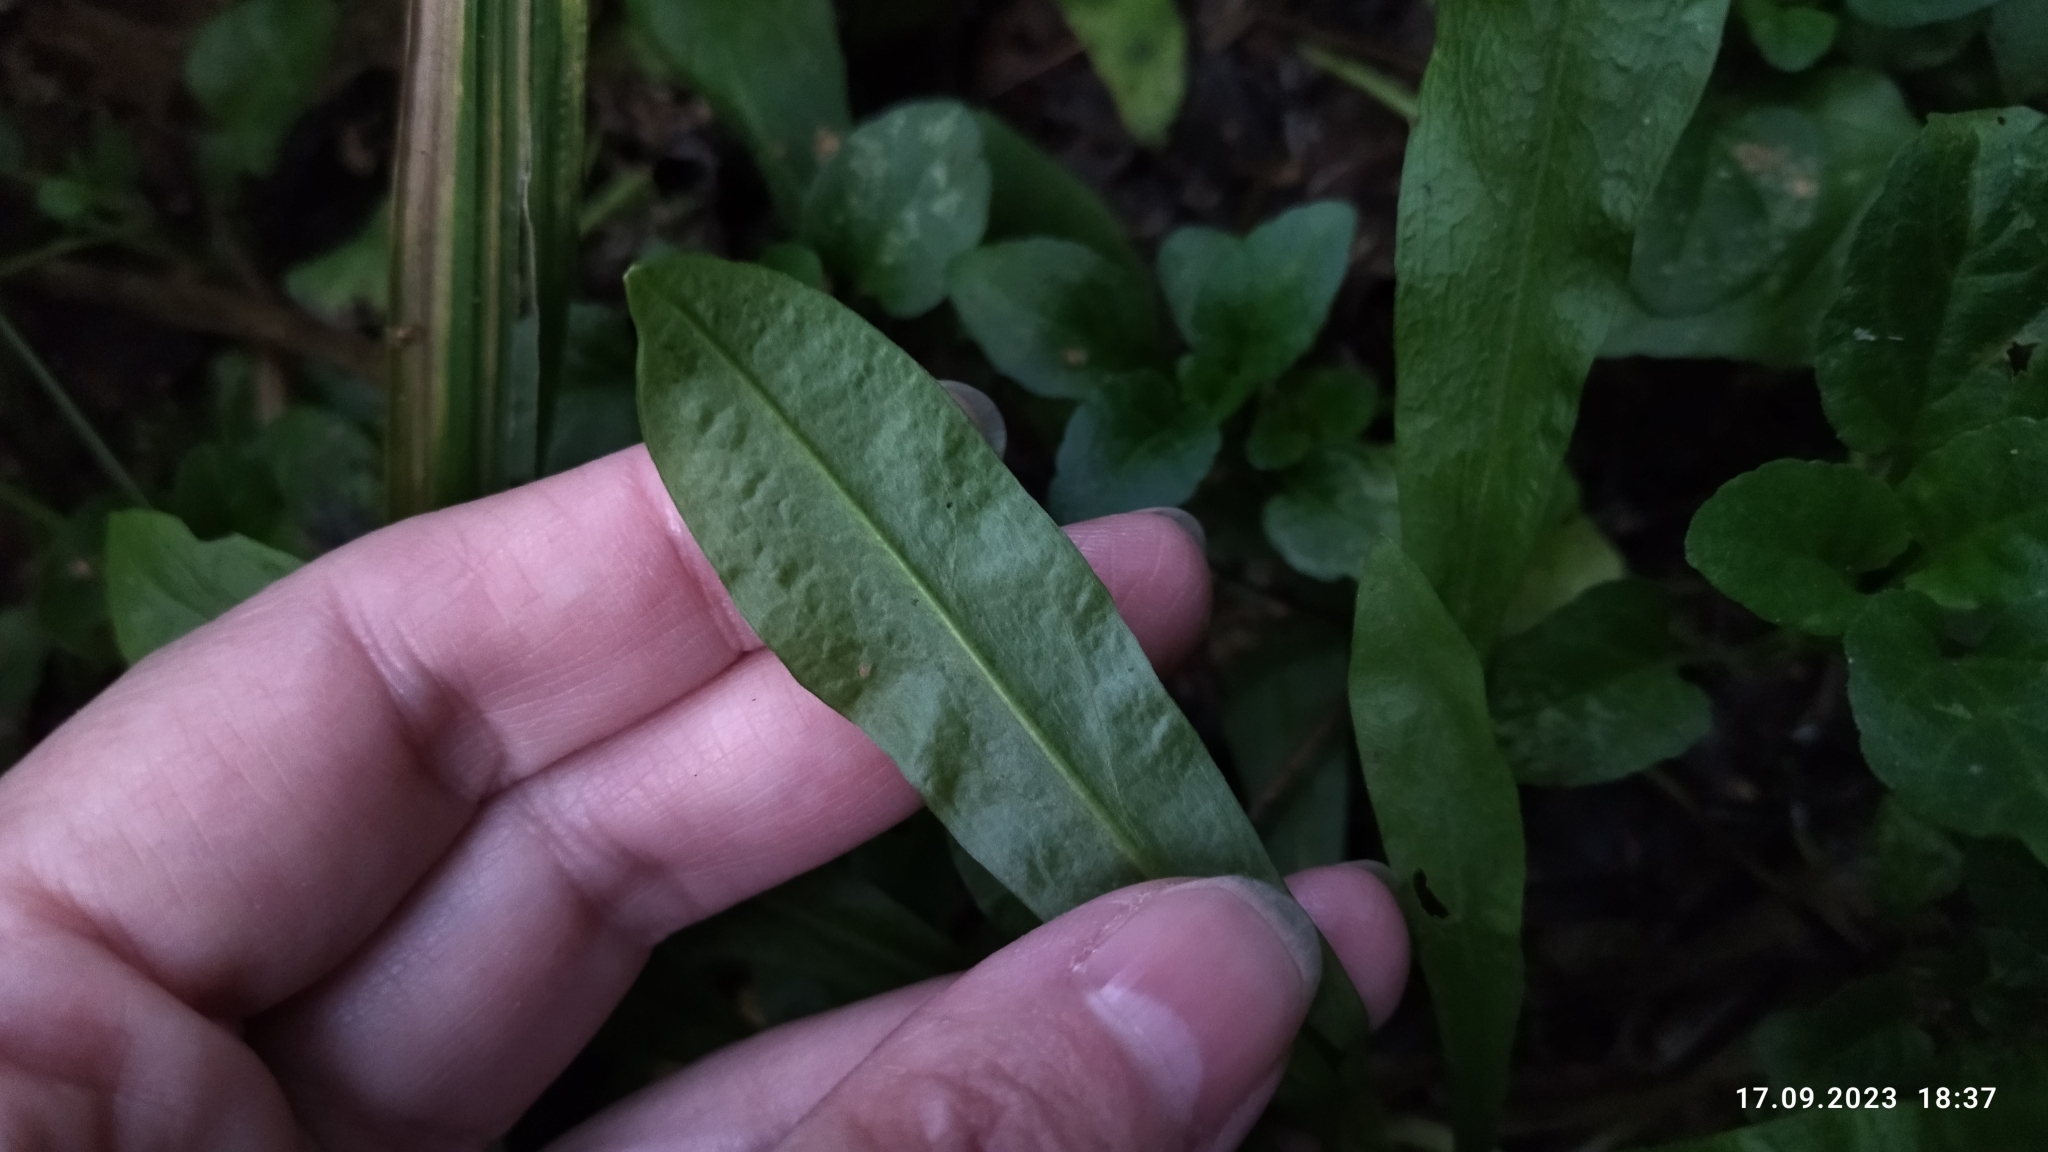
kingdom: Plantae
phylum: Tracheophyta
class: Magnoliopsida
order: Boraginales
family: Boraginaceae
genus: Myosotis
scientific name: Myosotis scorpioides
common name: Water forget-me-not
